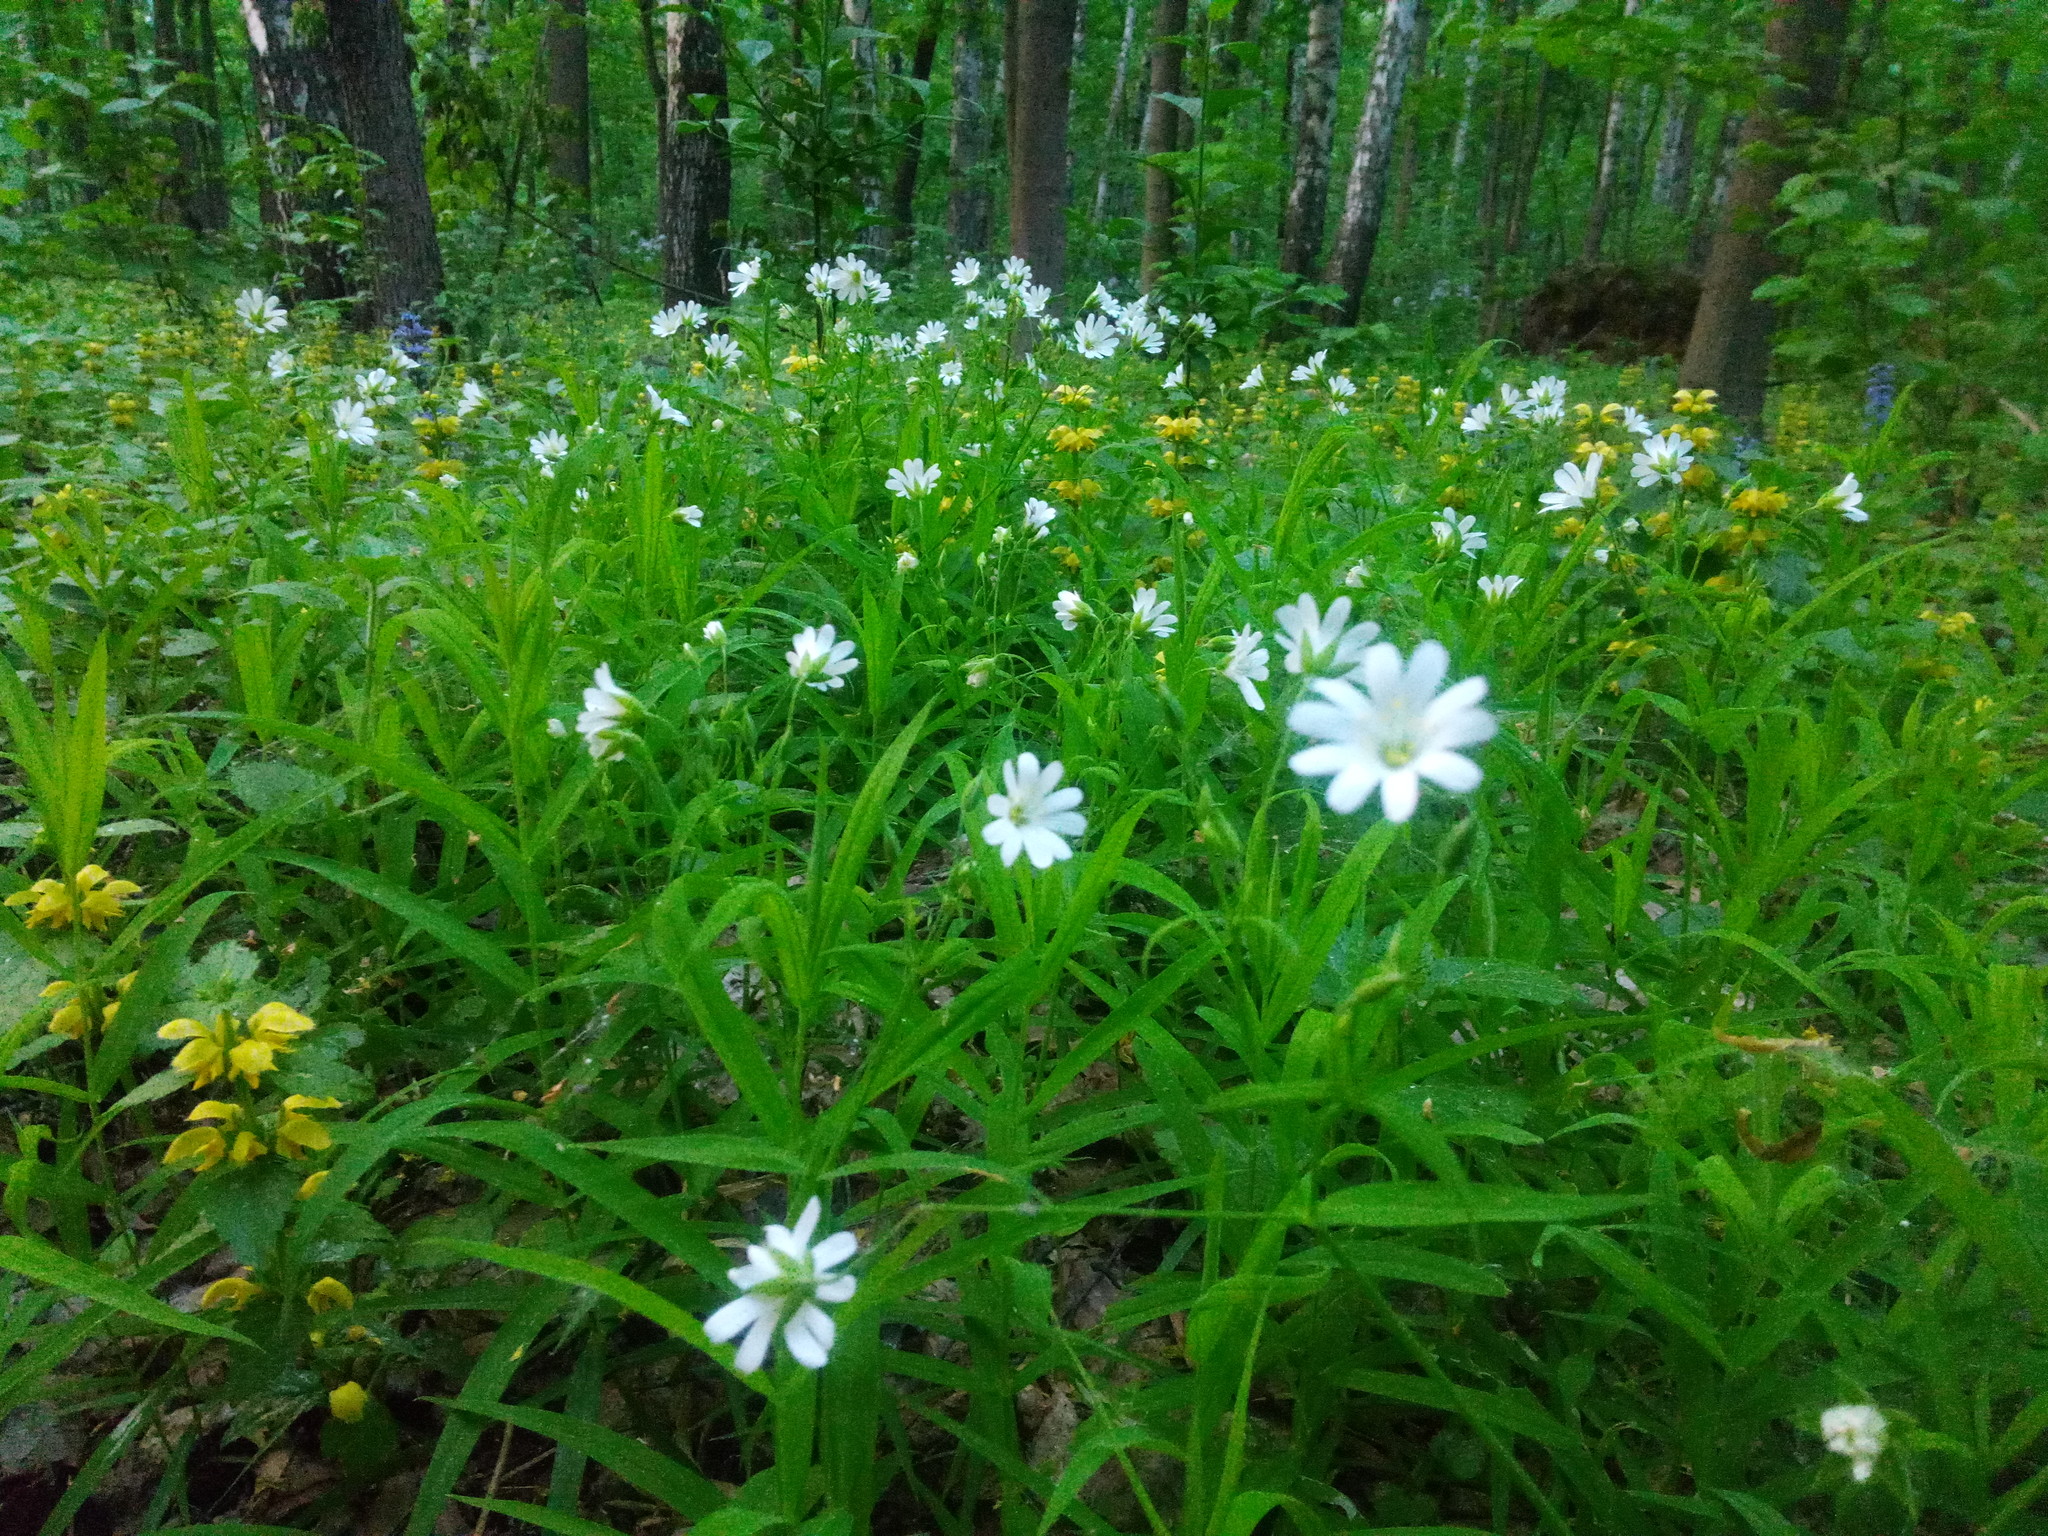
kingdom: Plantae
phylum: Tracheophyta
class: Magnoliopsida
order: Caryophyllales
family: Caryophyllaceae
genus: Rabelera
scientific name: Rabelera holostea
